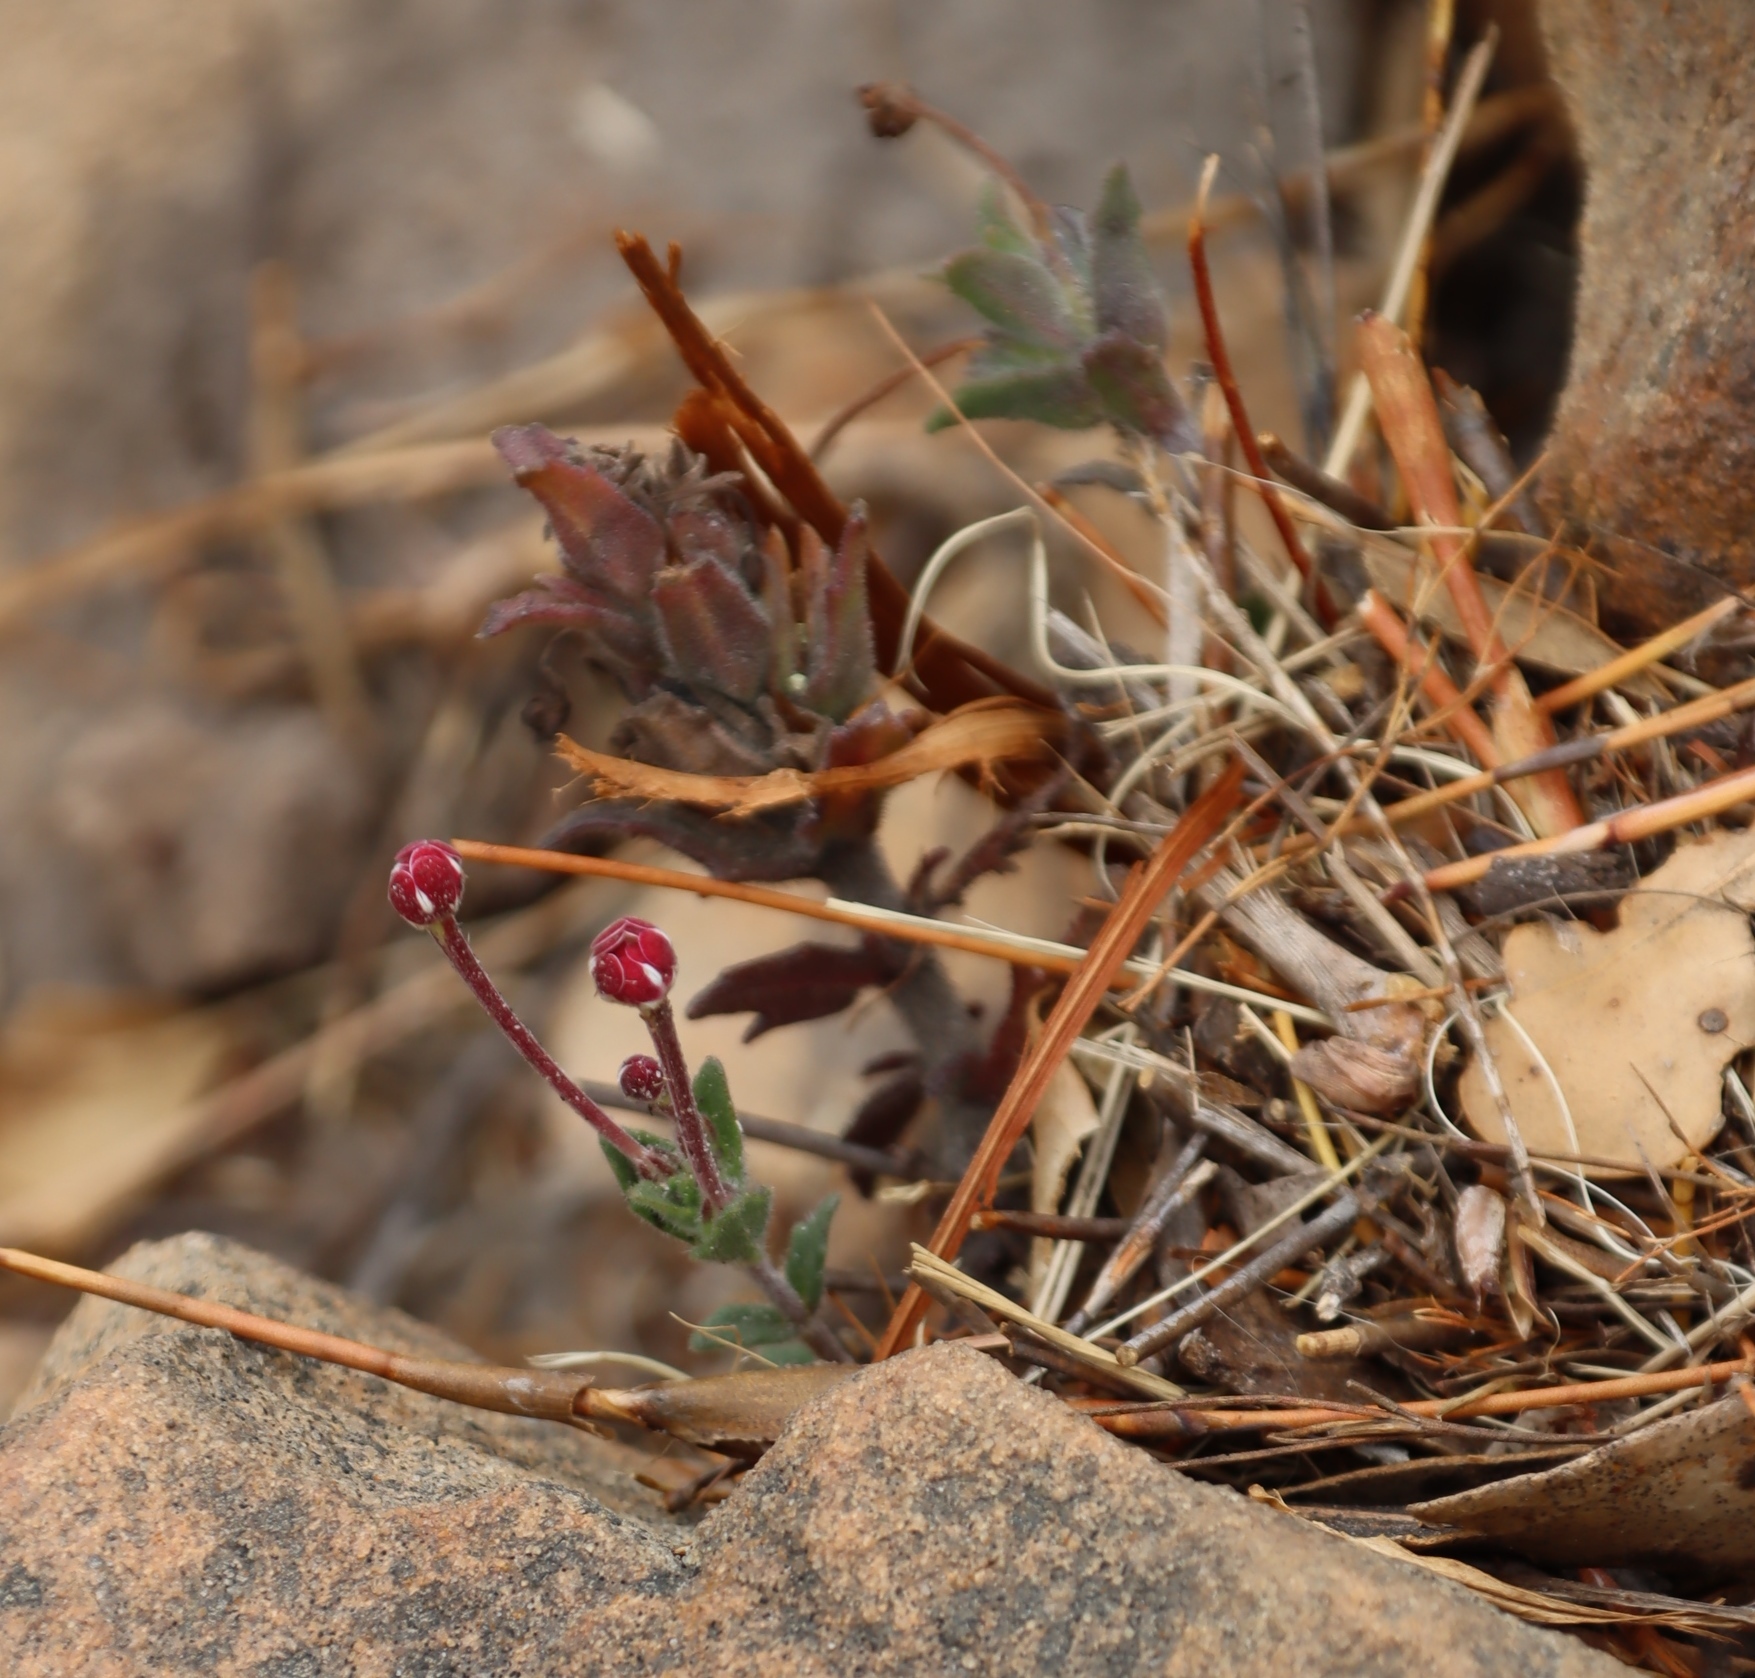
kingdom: Plantae
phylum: Tracheophyta
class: Magnoliopsida
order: Lamiales
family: Scrophulariaceae
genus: Zaluzianskya
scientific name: Zaluzianskya capensis
